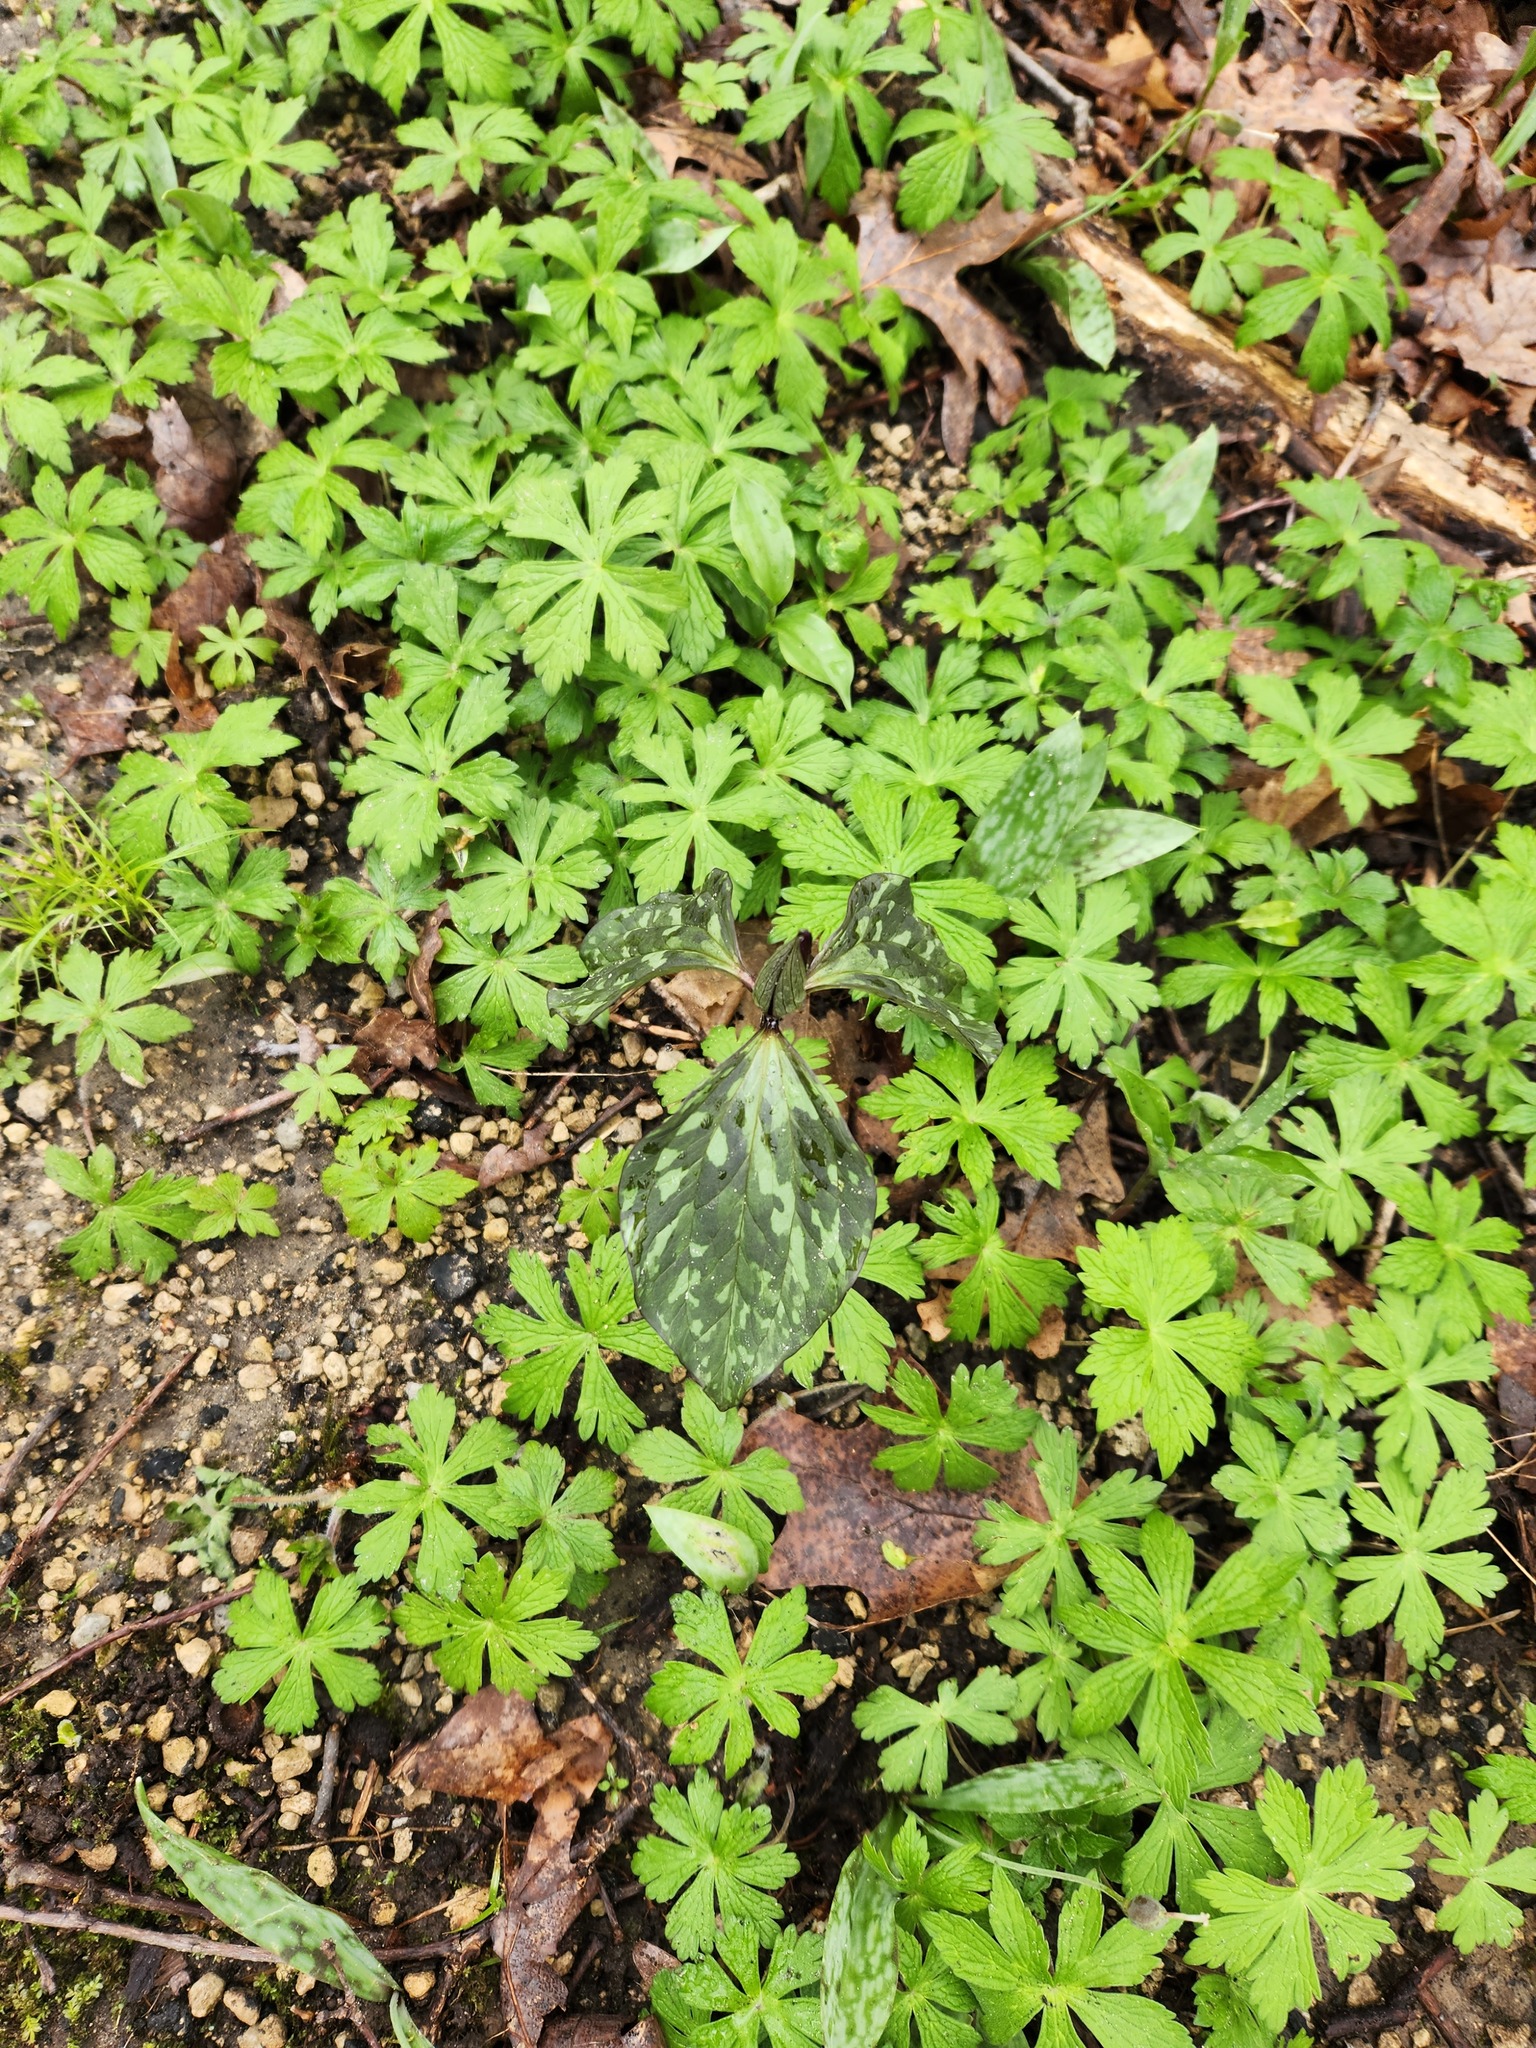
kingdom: Plantae
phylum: Tracheophyta
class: Liliopsida
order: Liliales
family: Melanthiaceae
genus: Trillium
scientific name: Trillium recurvatum
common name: Bloody butcher
